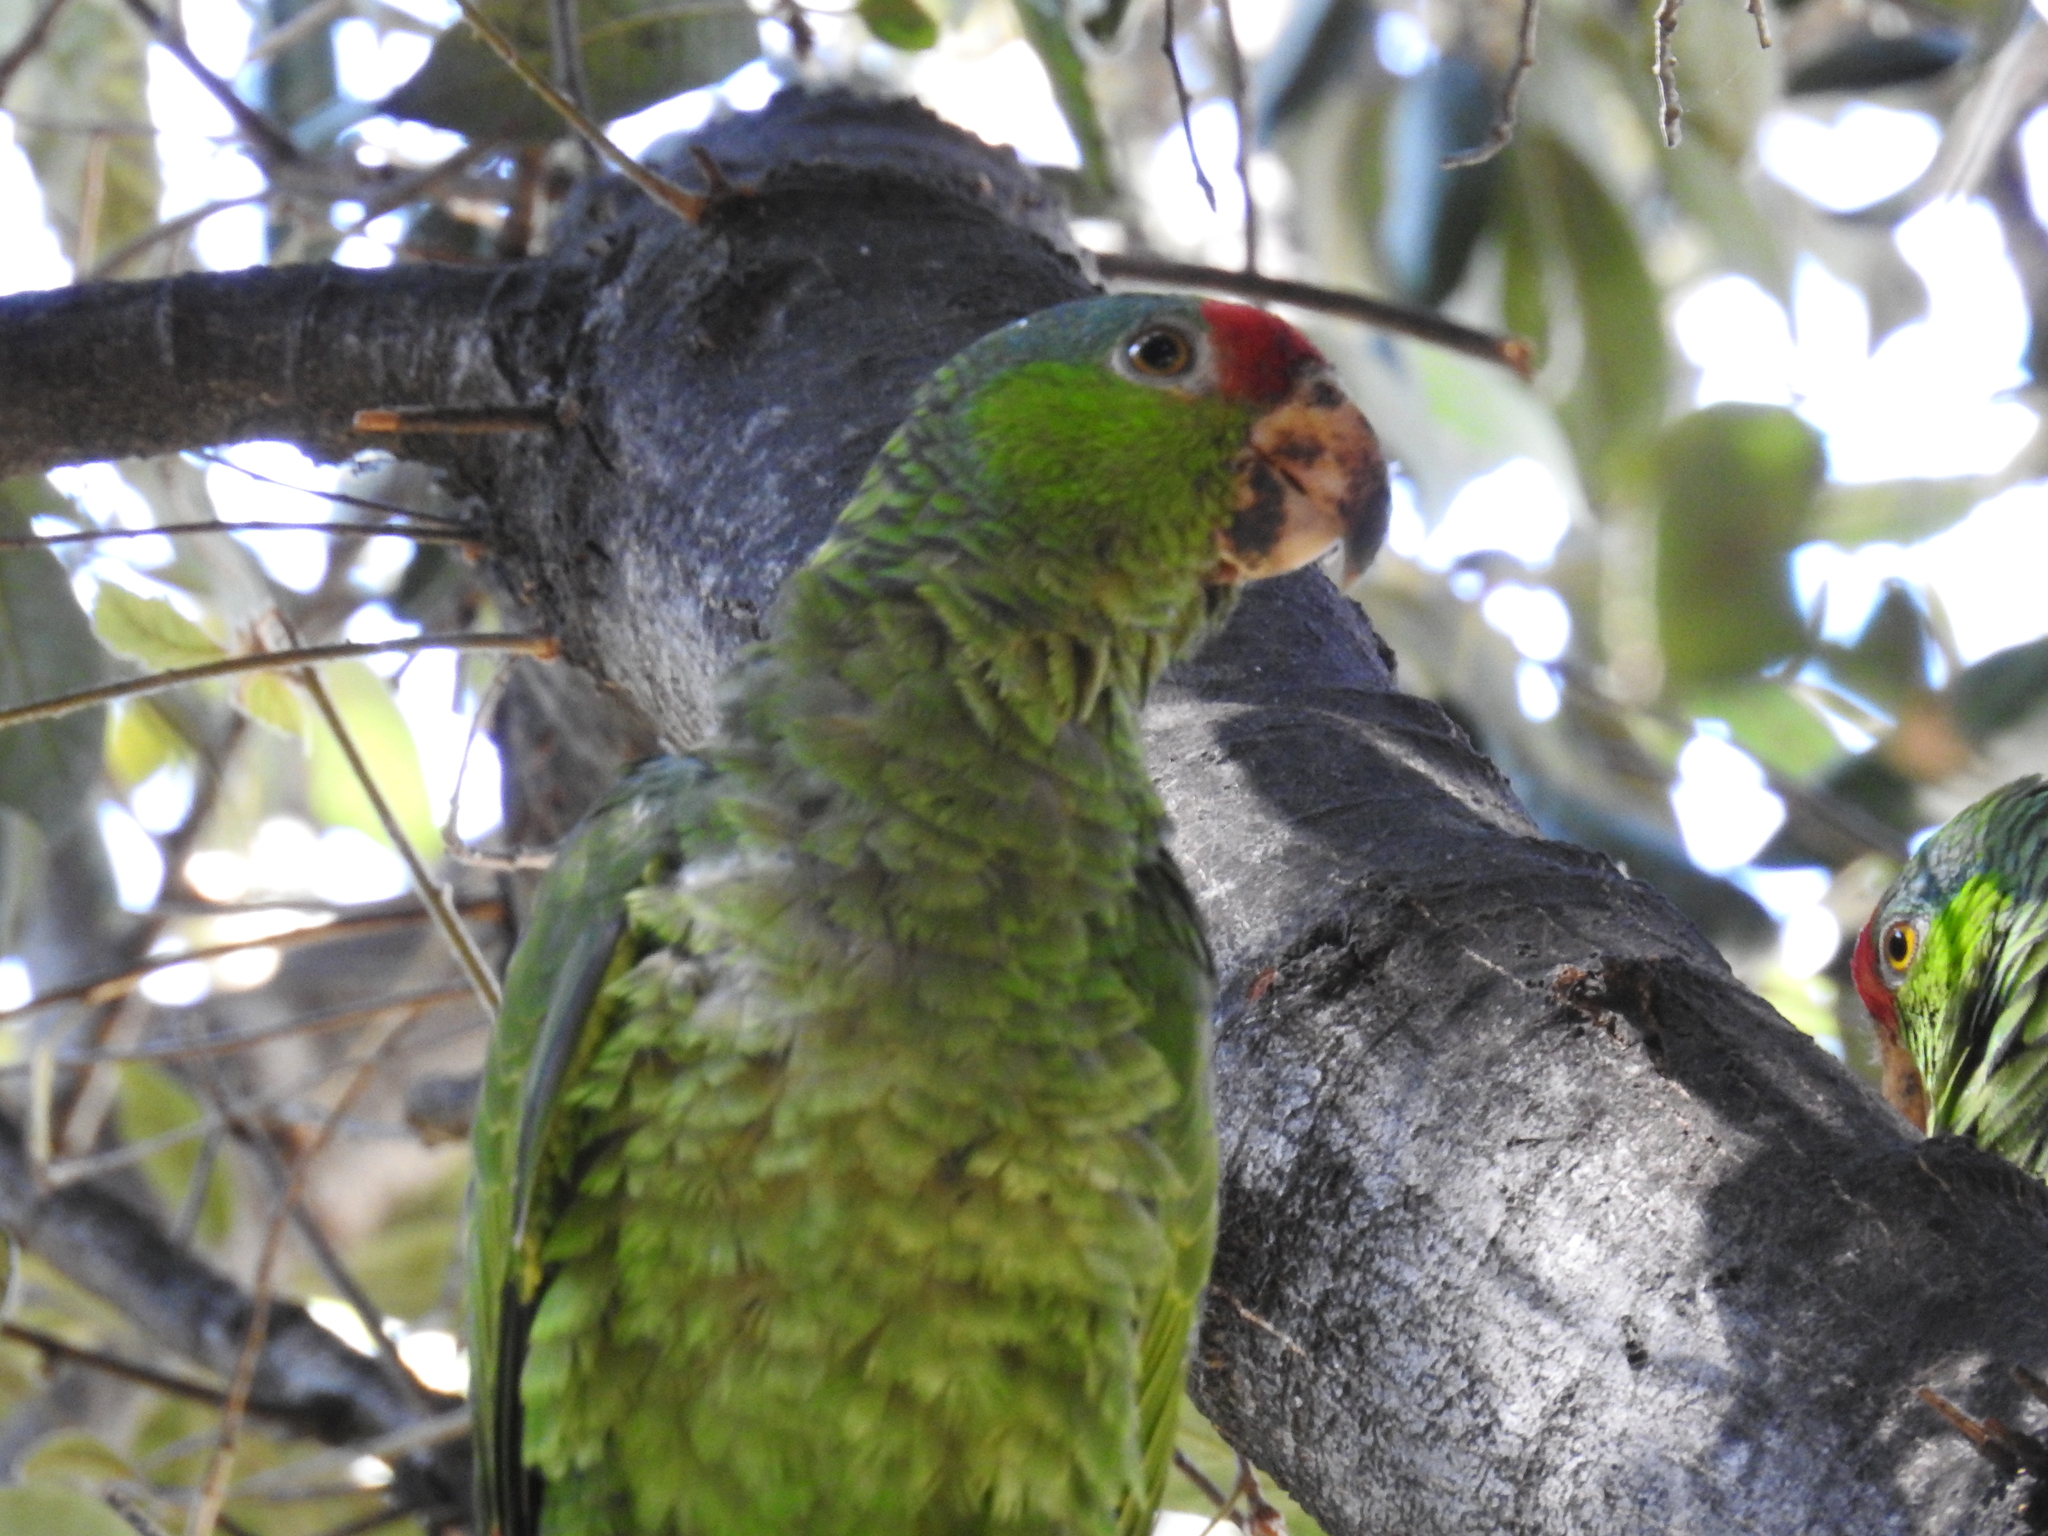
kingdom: Animalia
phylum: Chordata
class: Aves
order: Psittaciformes
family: Psittacidae
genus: Amazona
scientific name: Amazona viridigenalis
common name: Red-crowned amazon
